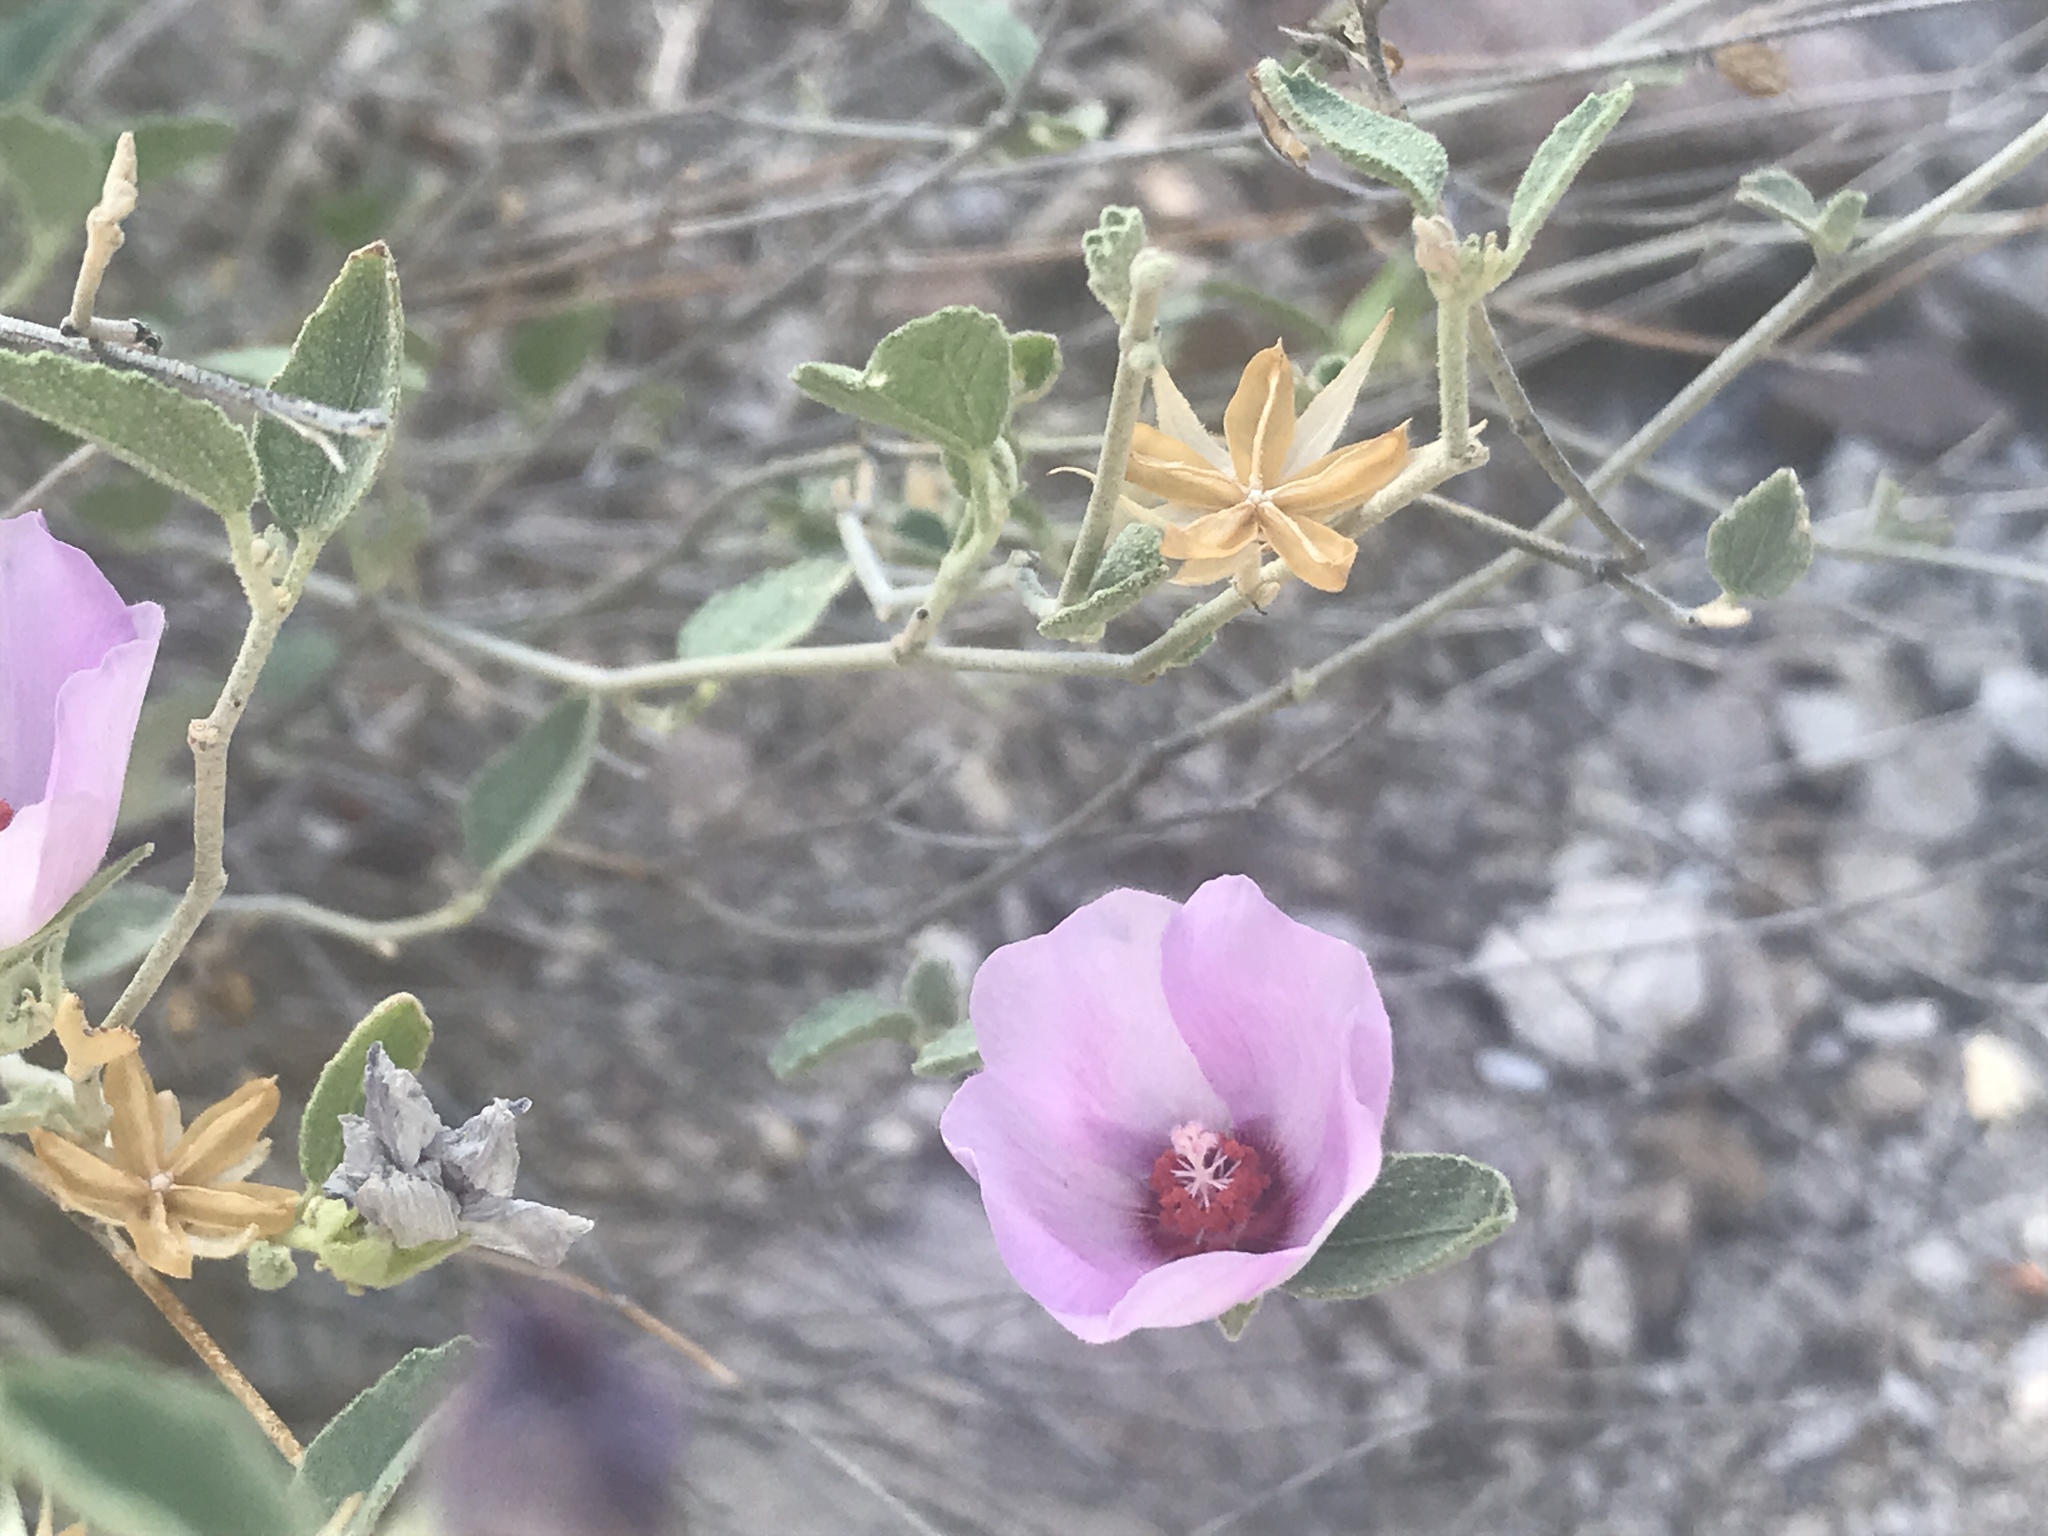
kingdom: Plantae
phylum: Tracheophyta
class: Magnoliopsida
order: Malvales
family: Malvaceae
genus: Hibiscus
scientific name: Hibiscus denudatus
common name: Paleface
